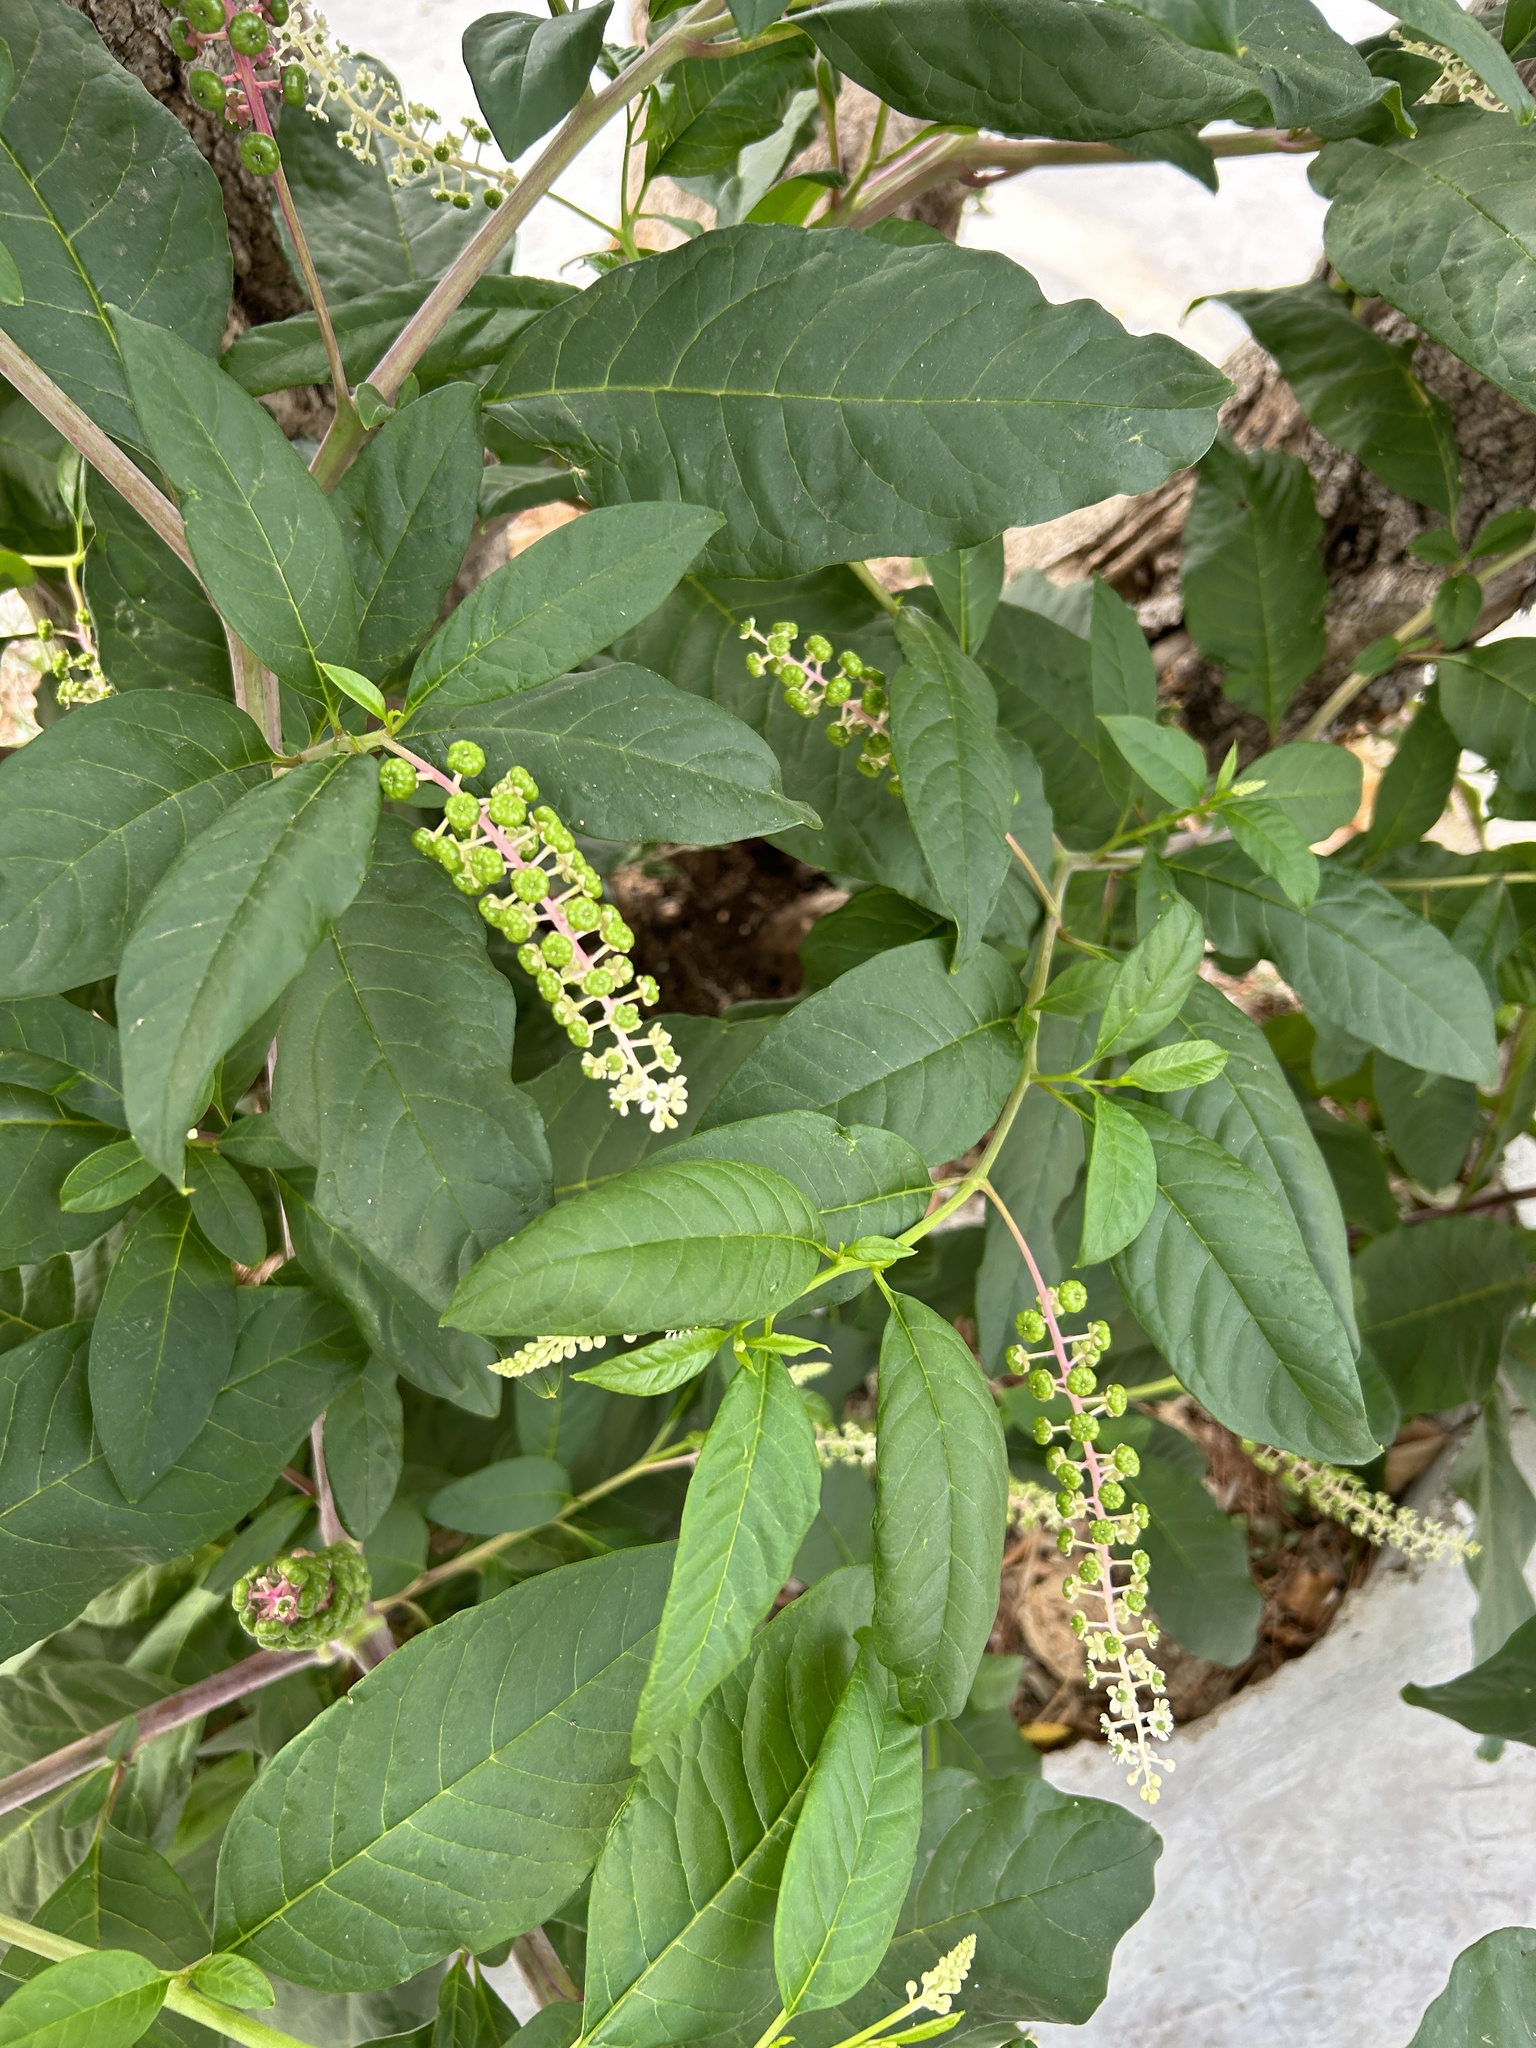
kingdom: Plantae
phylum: Tracheophyta
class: Magnoliopsida
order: Caryophyllales
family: Phytolaccaceae
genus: Phytolacca
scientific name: Phytolacca americana
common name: American pokeweed
